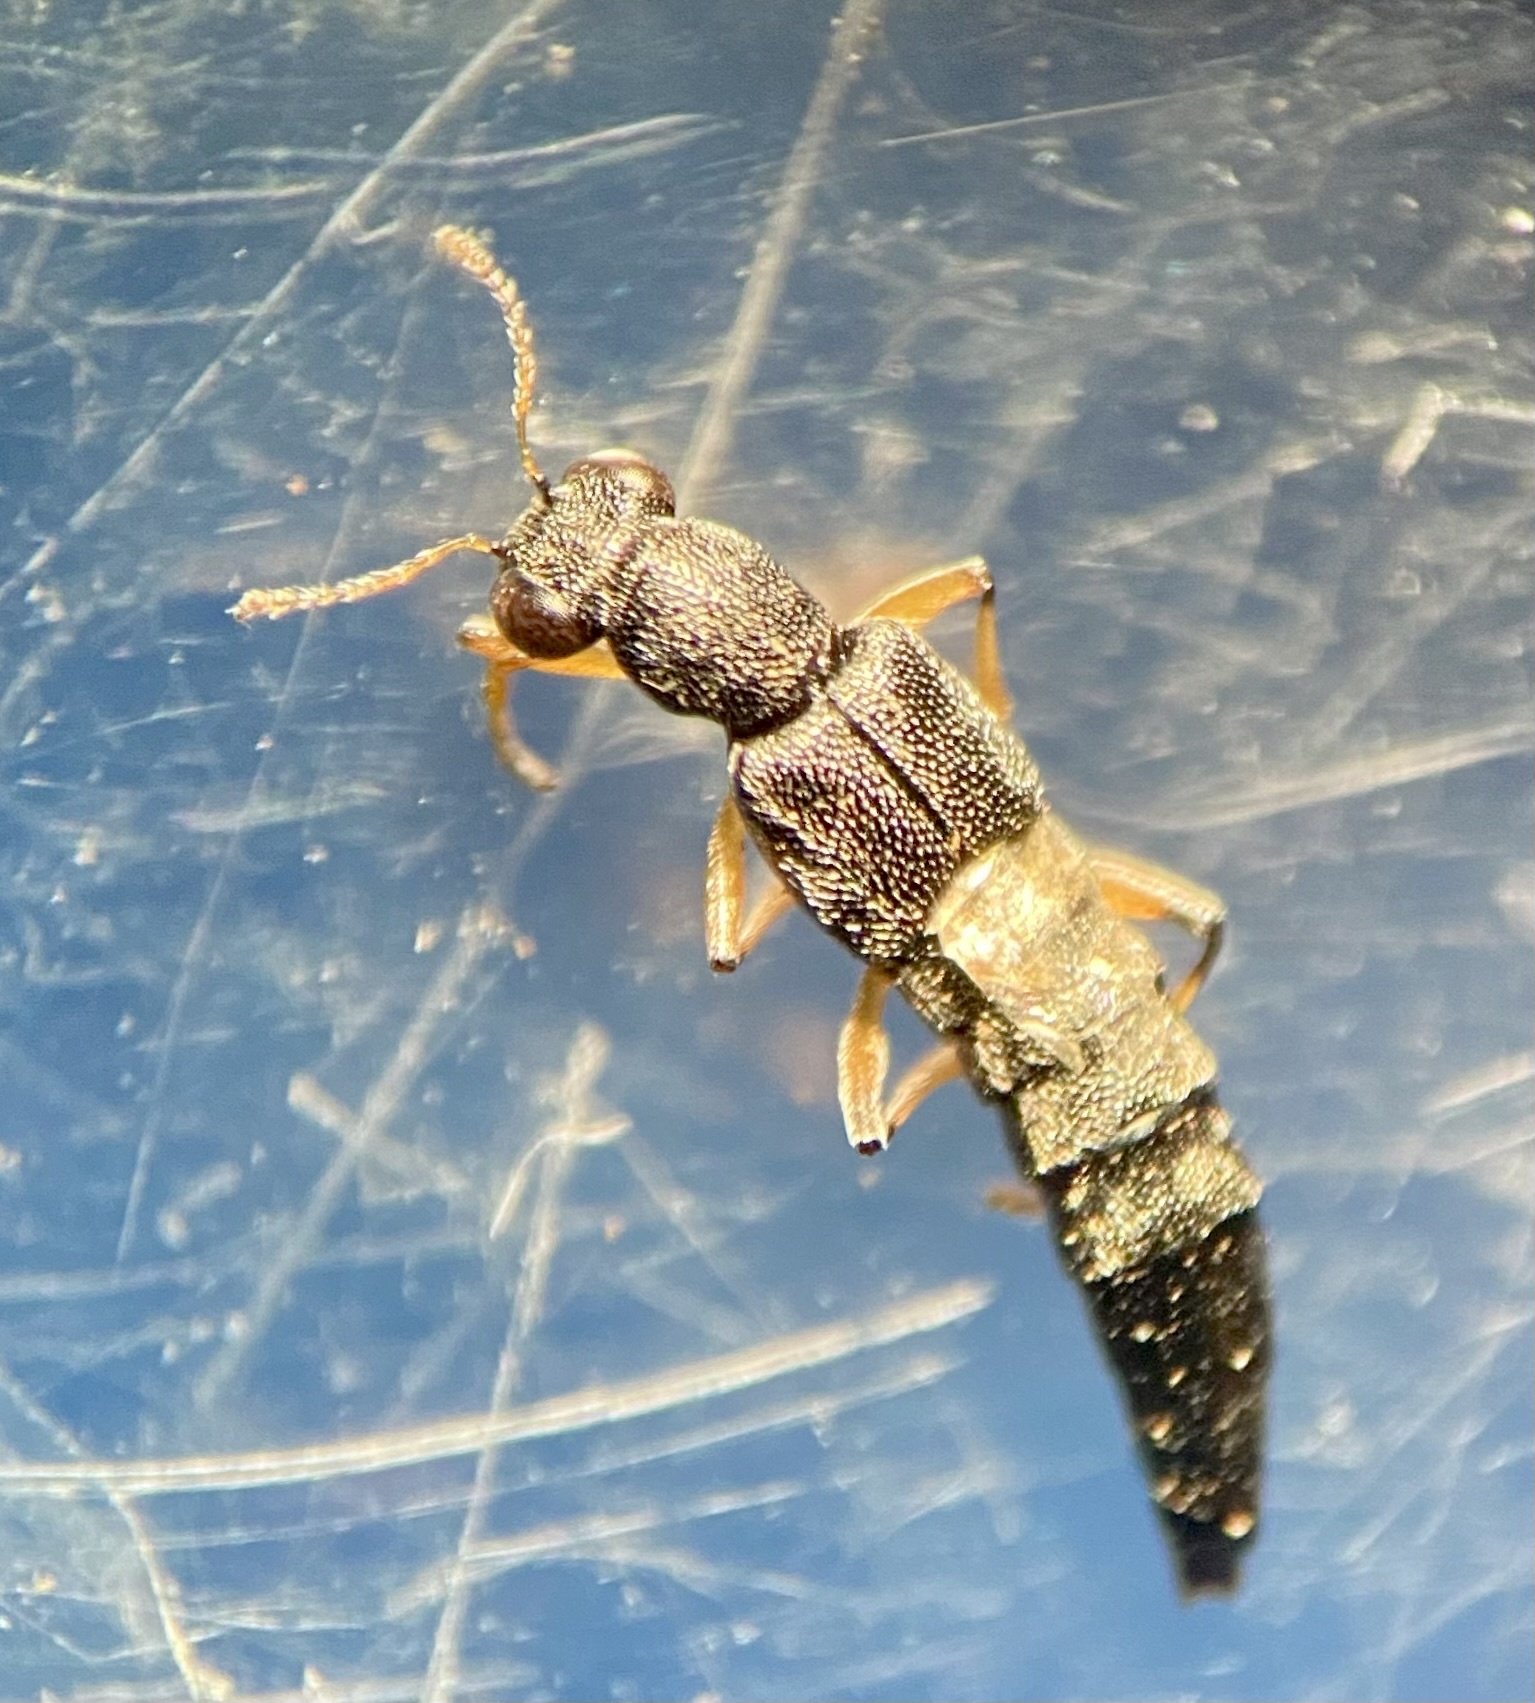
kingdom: Animalia
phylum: Arthropoda
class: Insecta
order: Coleoptera
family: Staphylinidae
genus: Stenus
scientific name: Stenus similis
